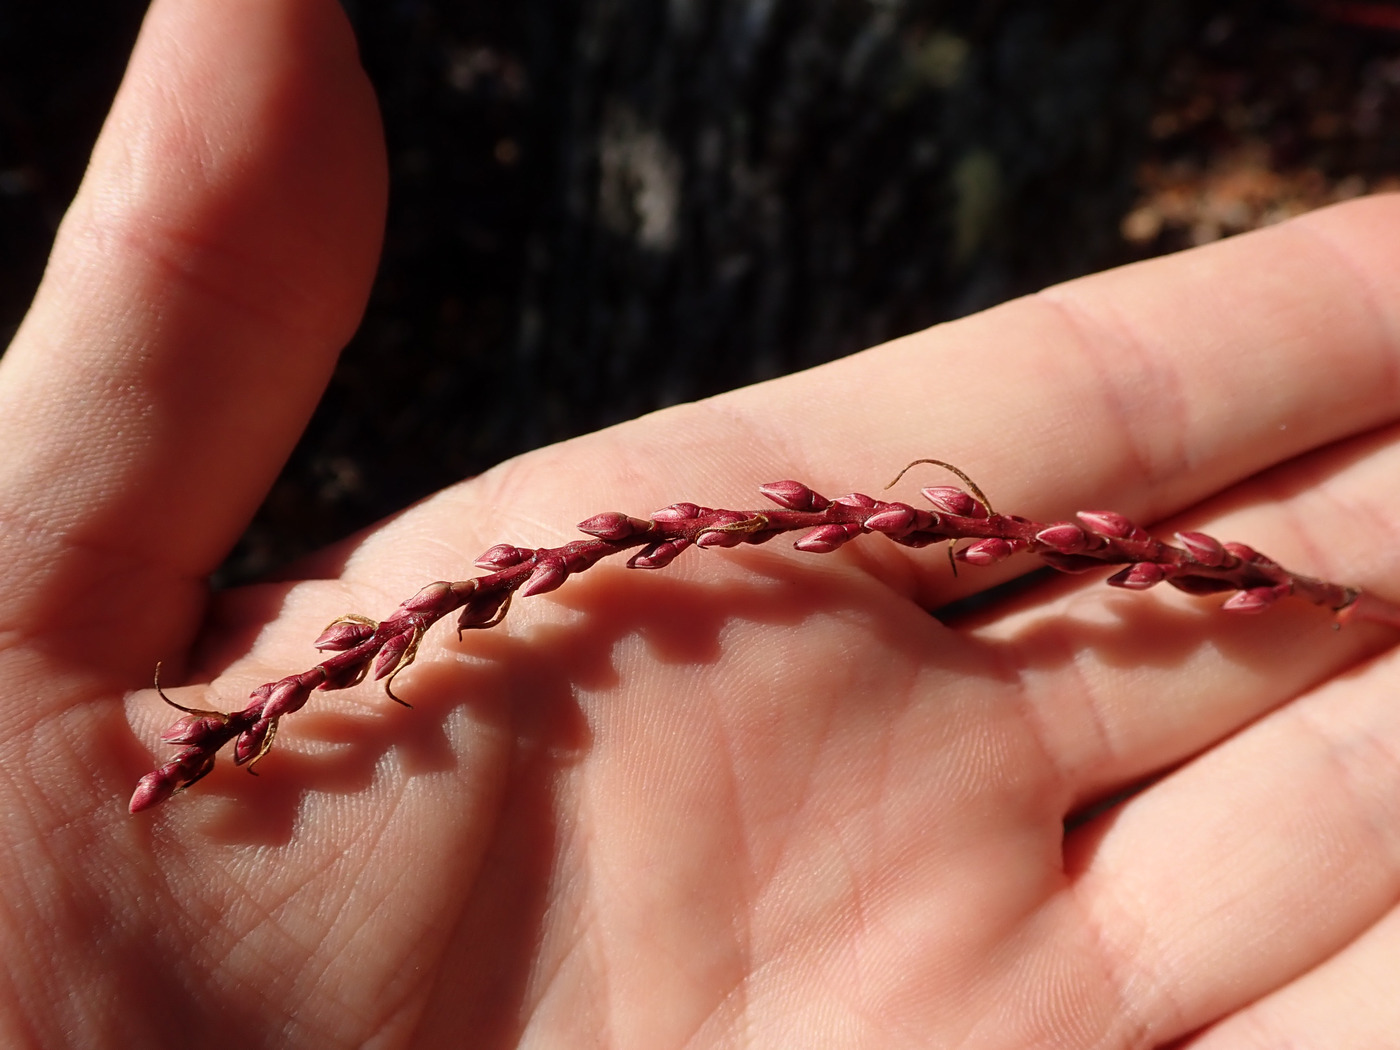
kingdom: Plantae
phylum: Tracheophyta
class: Magnoliopsida
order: Ericales
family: Ericaceae
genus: Eubotrys
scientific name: Eubotrys recurva
